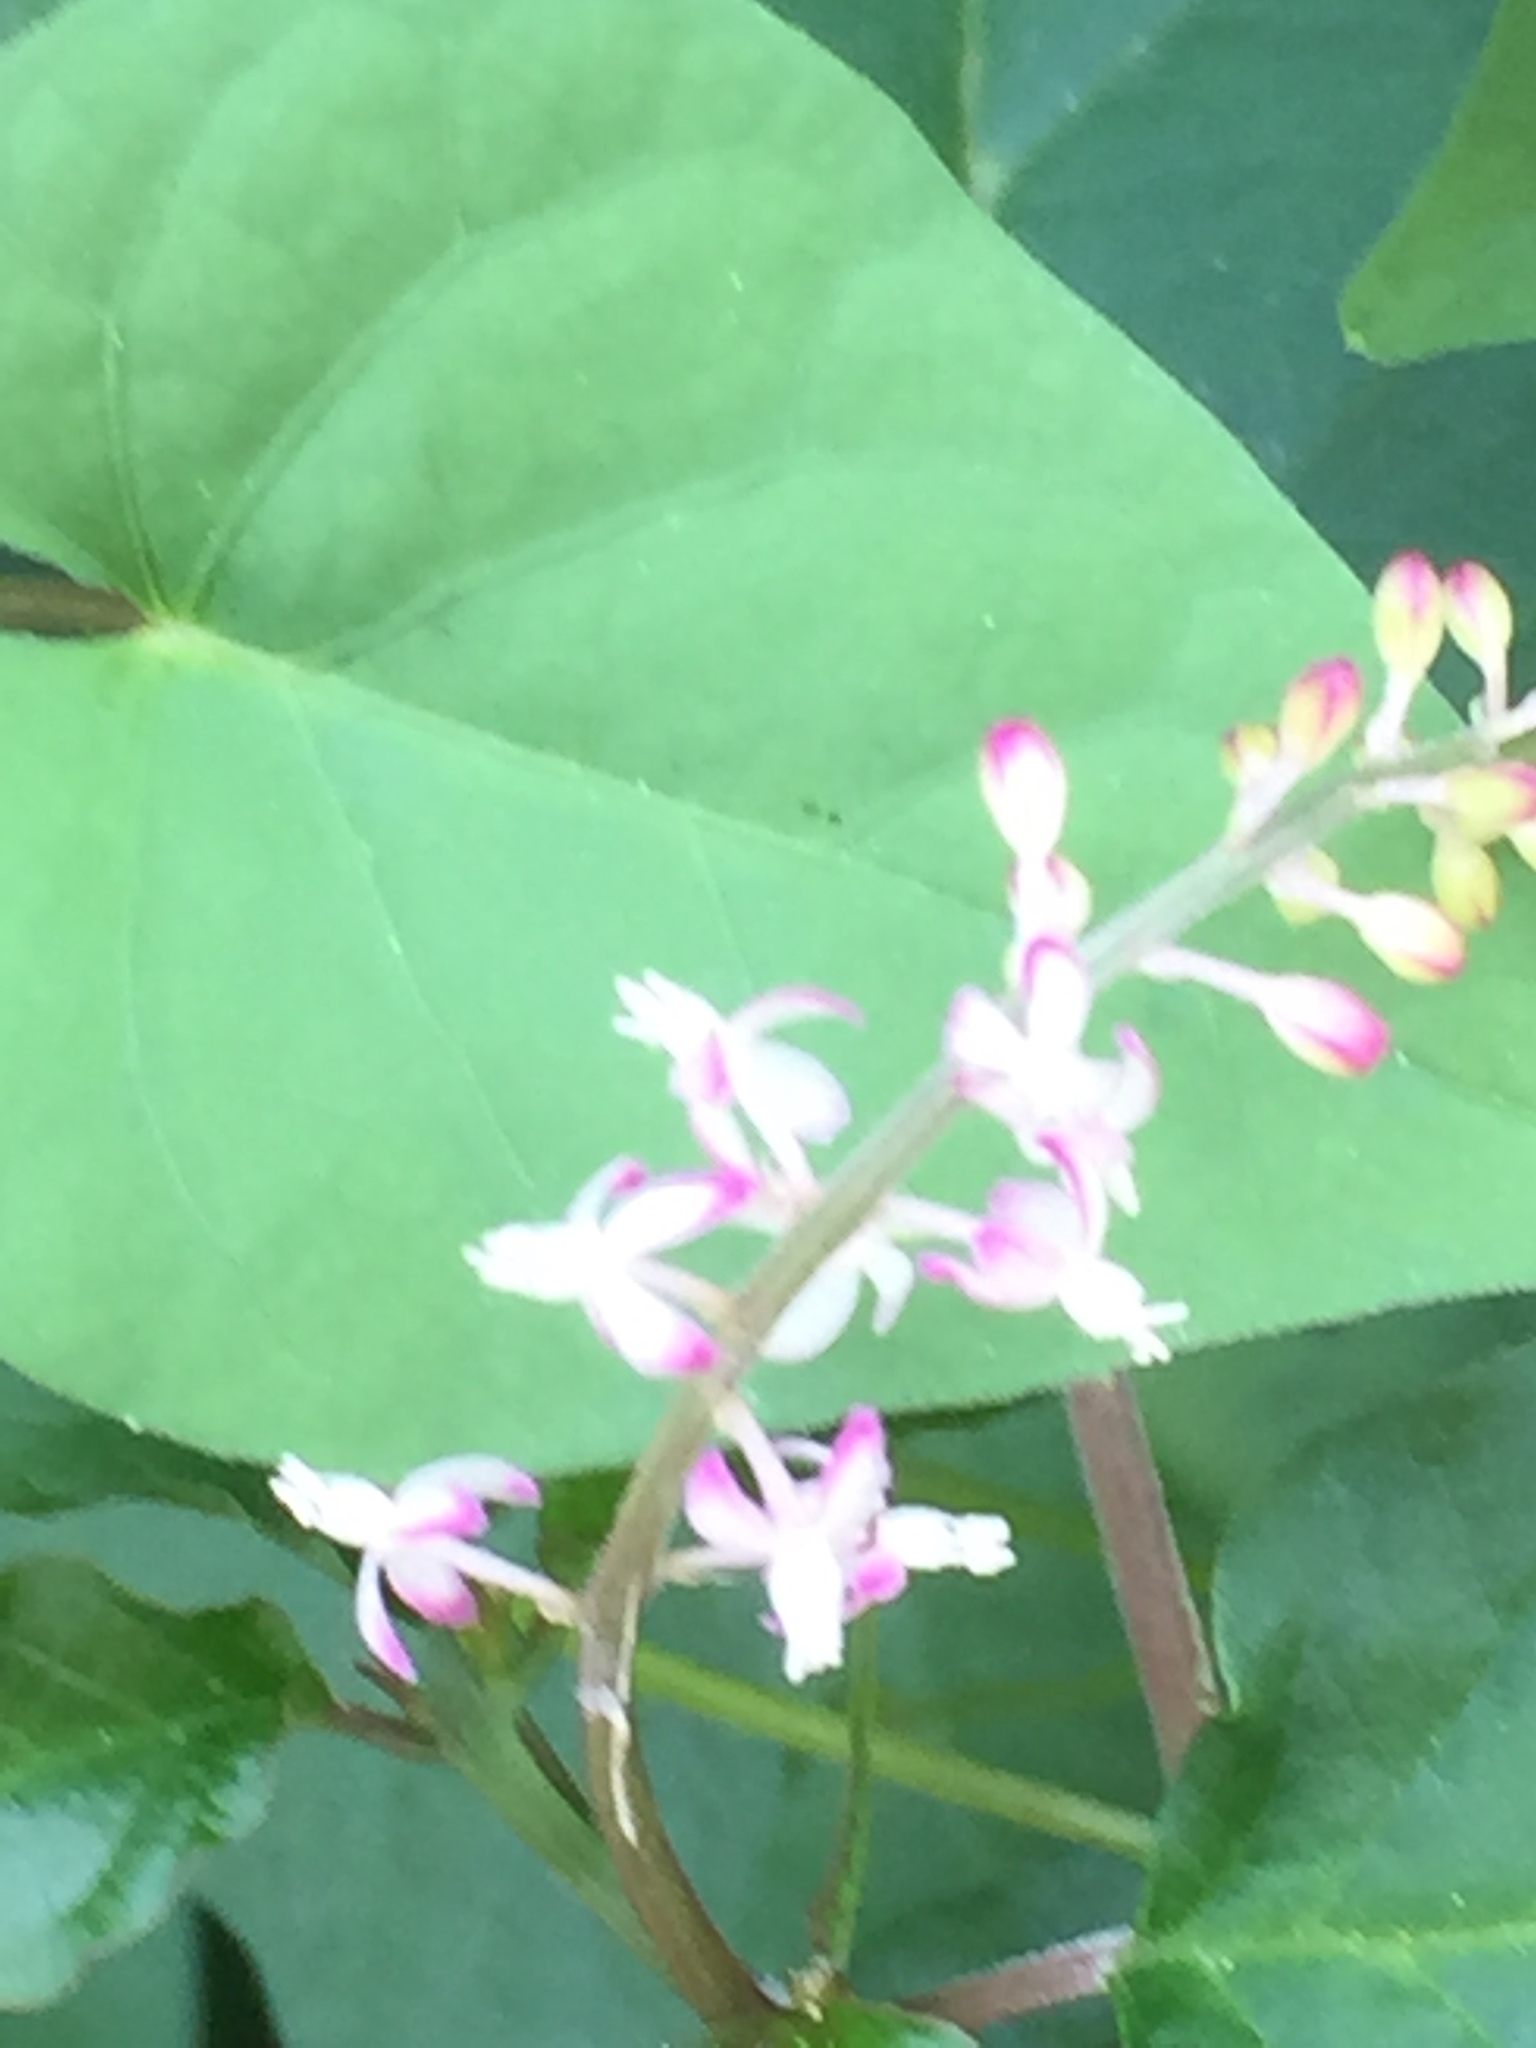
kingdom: Plantae
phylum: Tracheophyta
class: Magnoliopsida
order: Caryophyllales
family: Phytolaccaceae
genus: Rivina
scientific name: Rivina humilis
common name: Rougeplant
